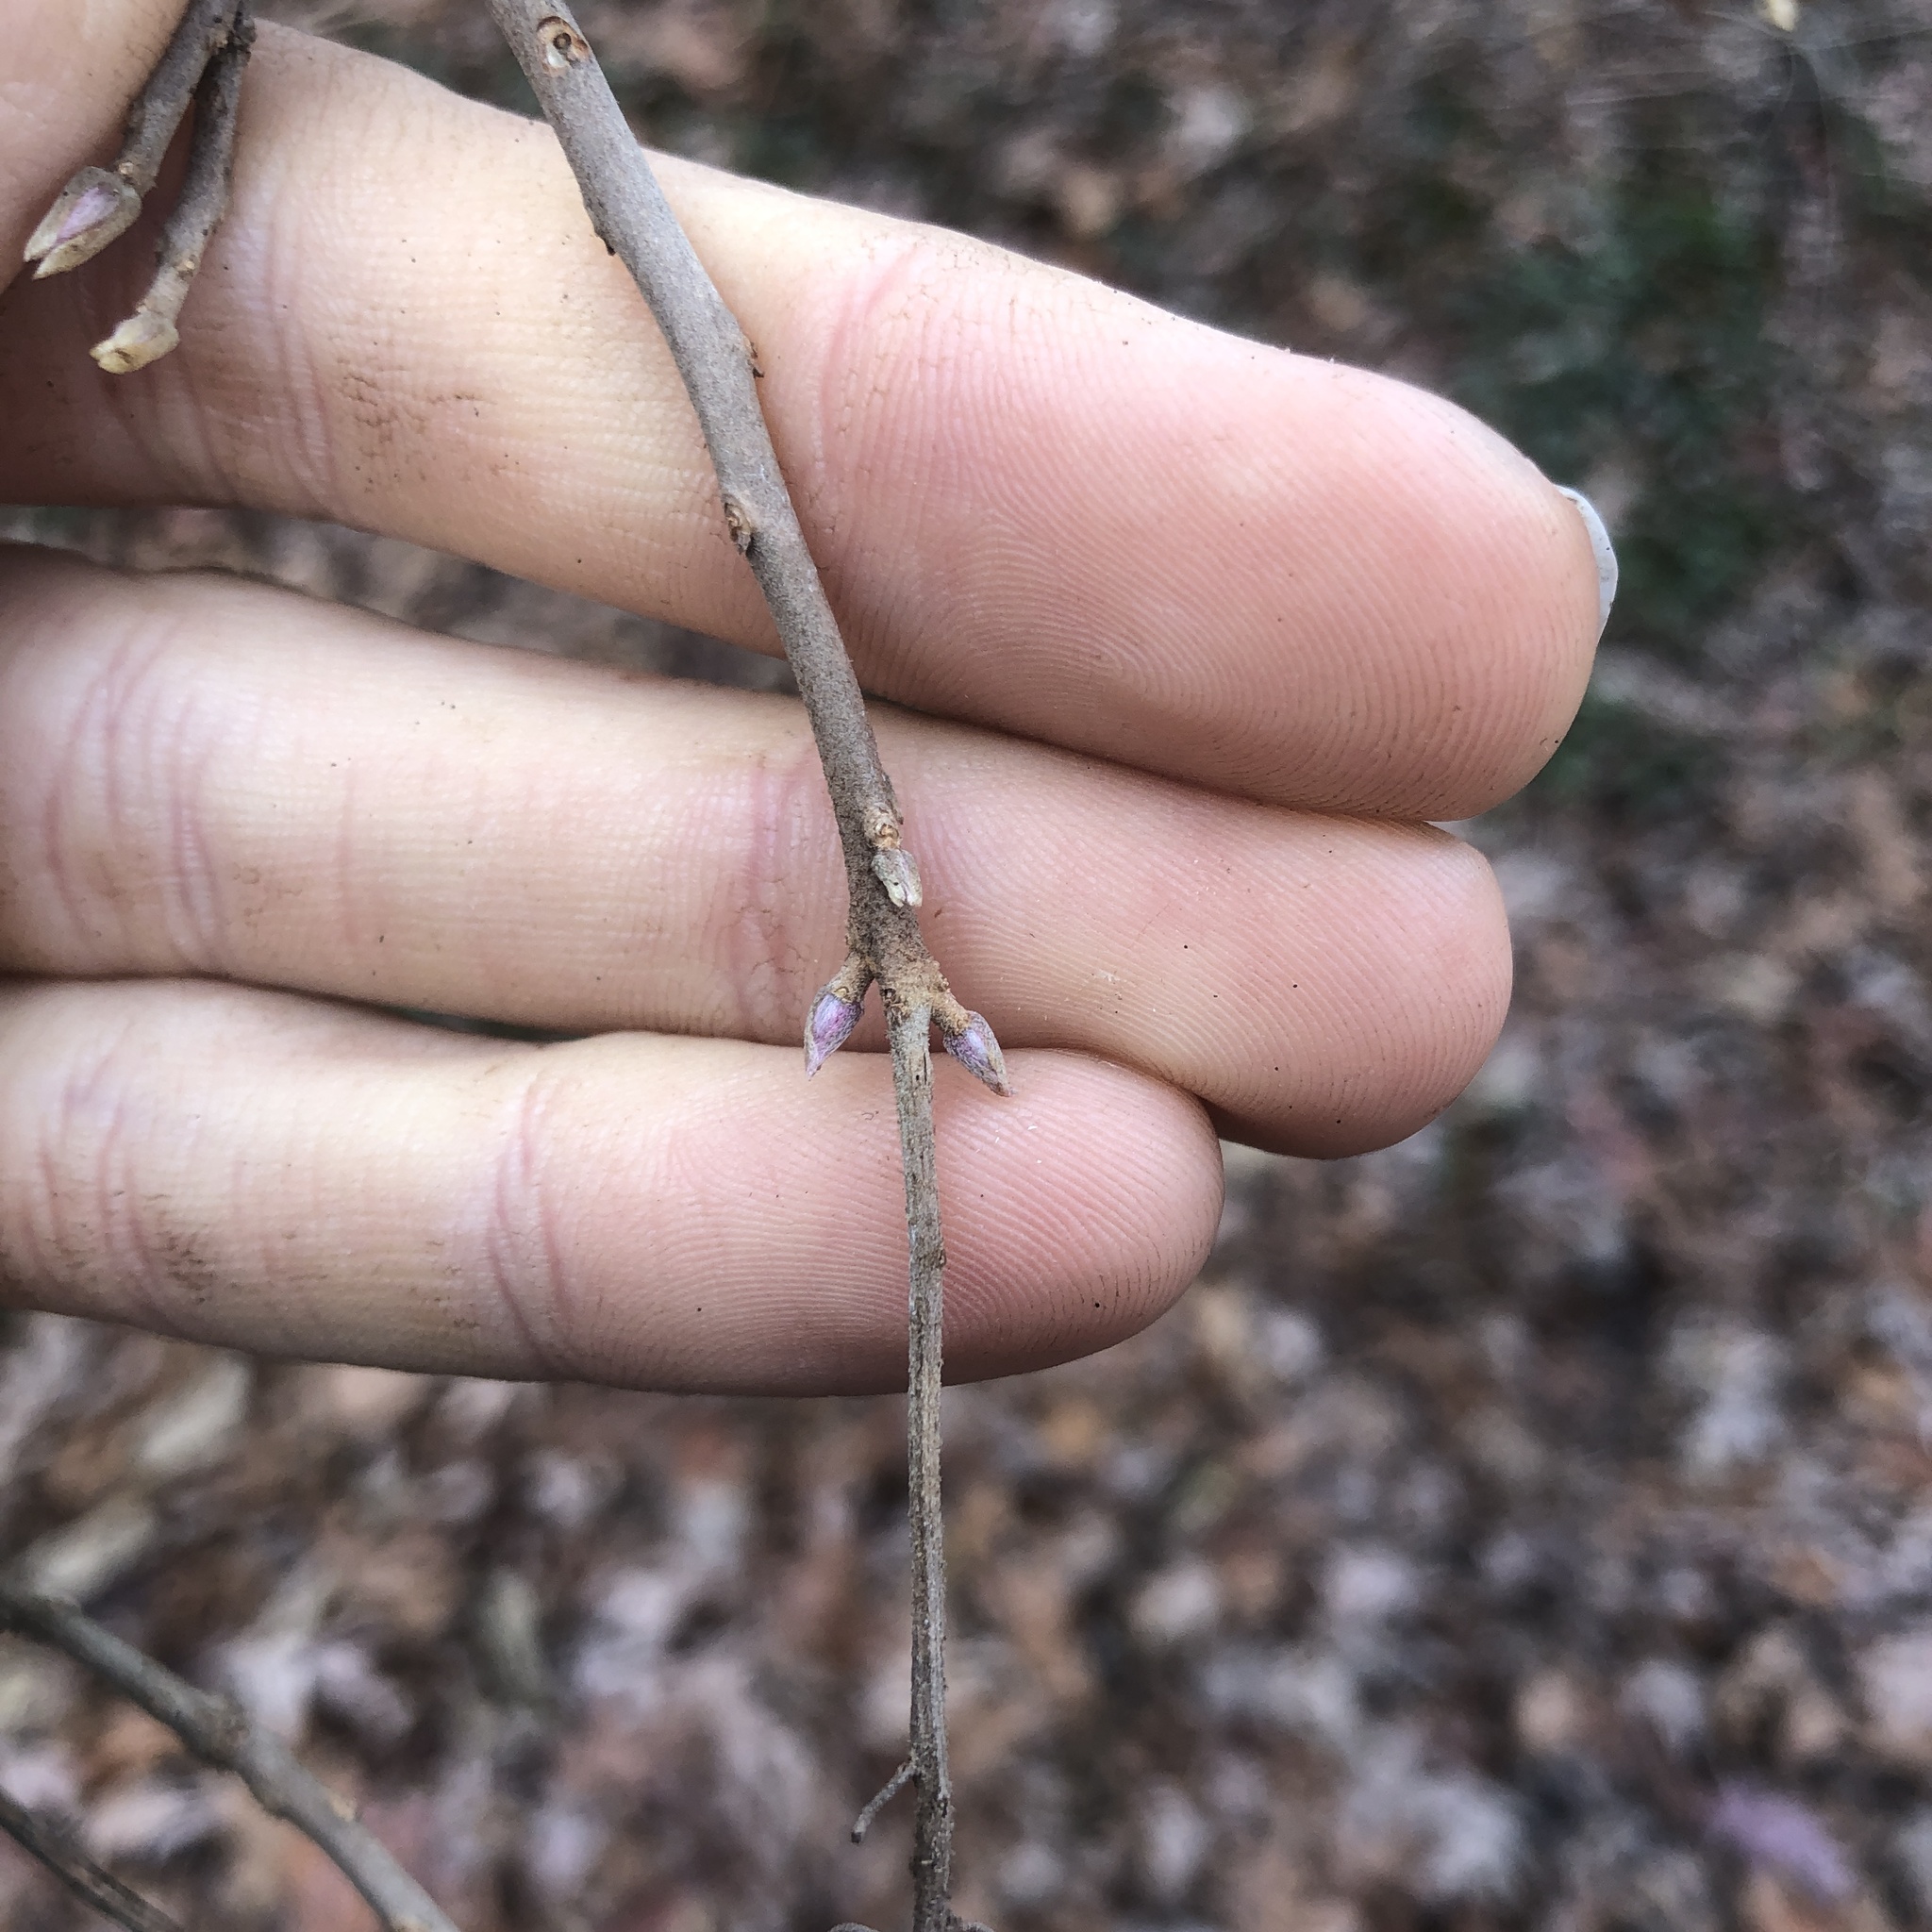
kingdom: Plantae
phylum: Tracheophyta
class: Magnoliopsida
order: Ericales
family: Clethraceae
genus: Clethra
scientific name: Clethra alnifolia
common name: Sweet pepperbush
